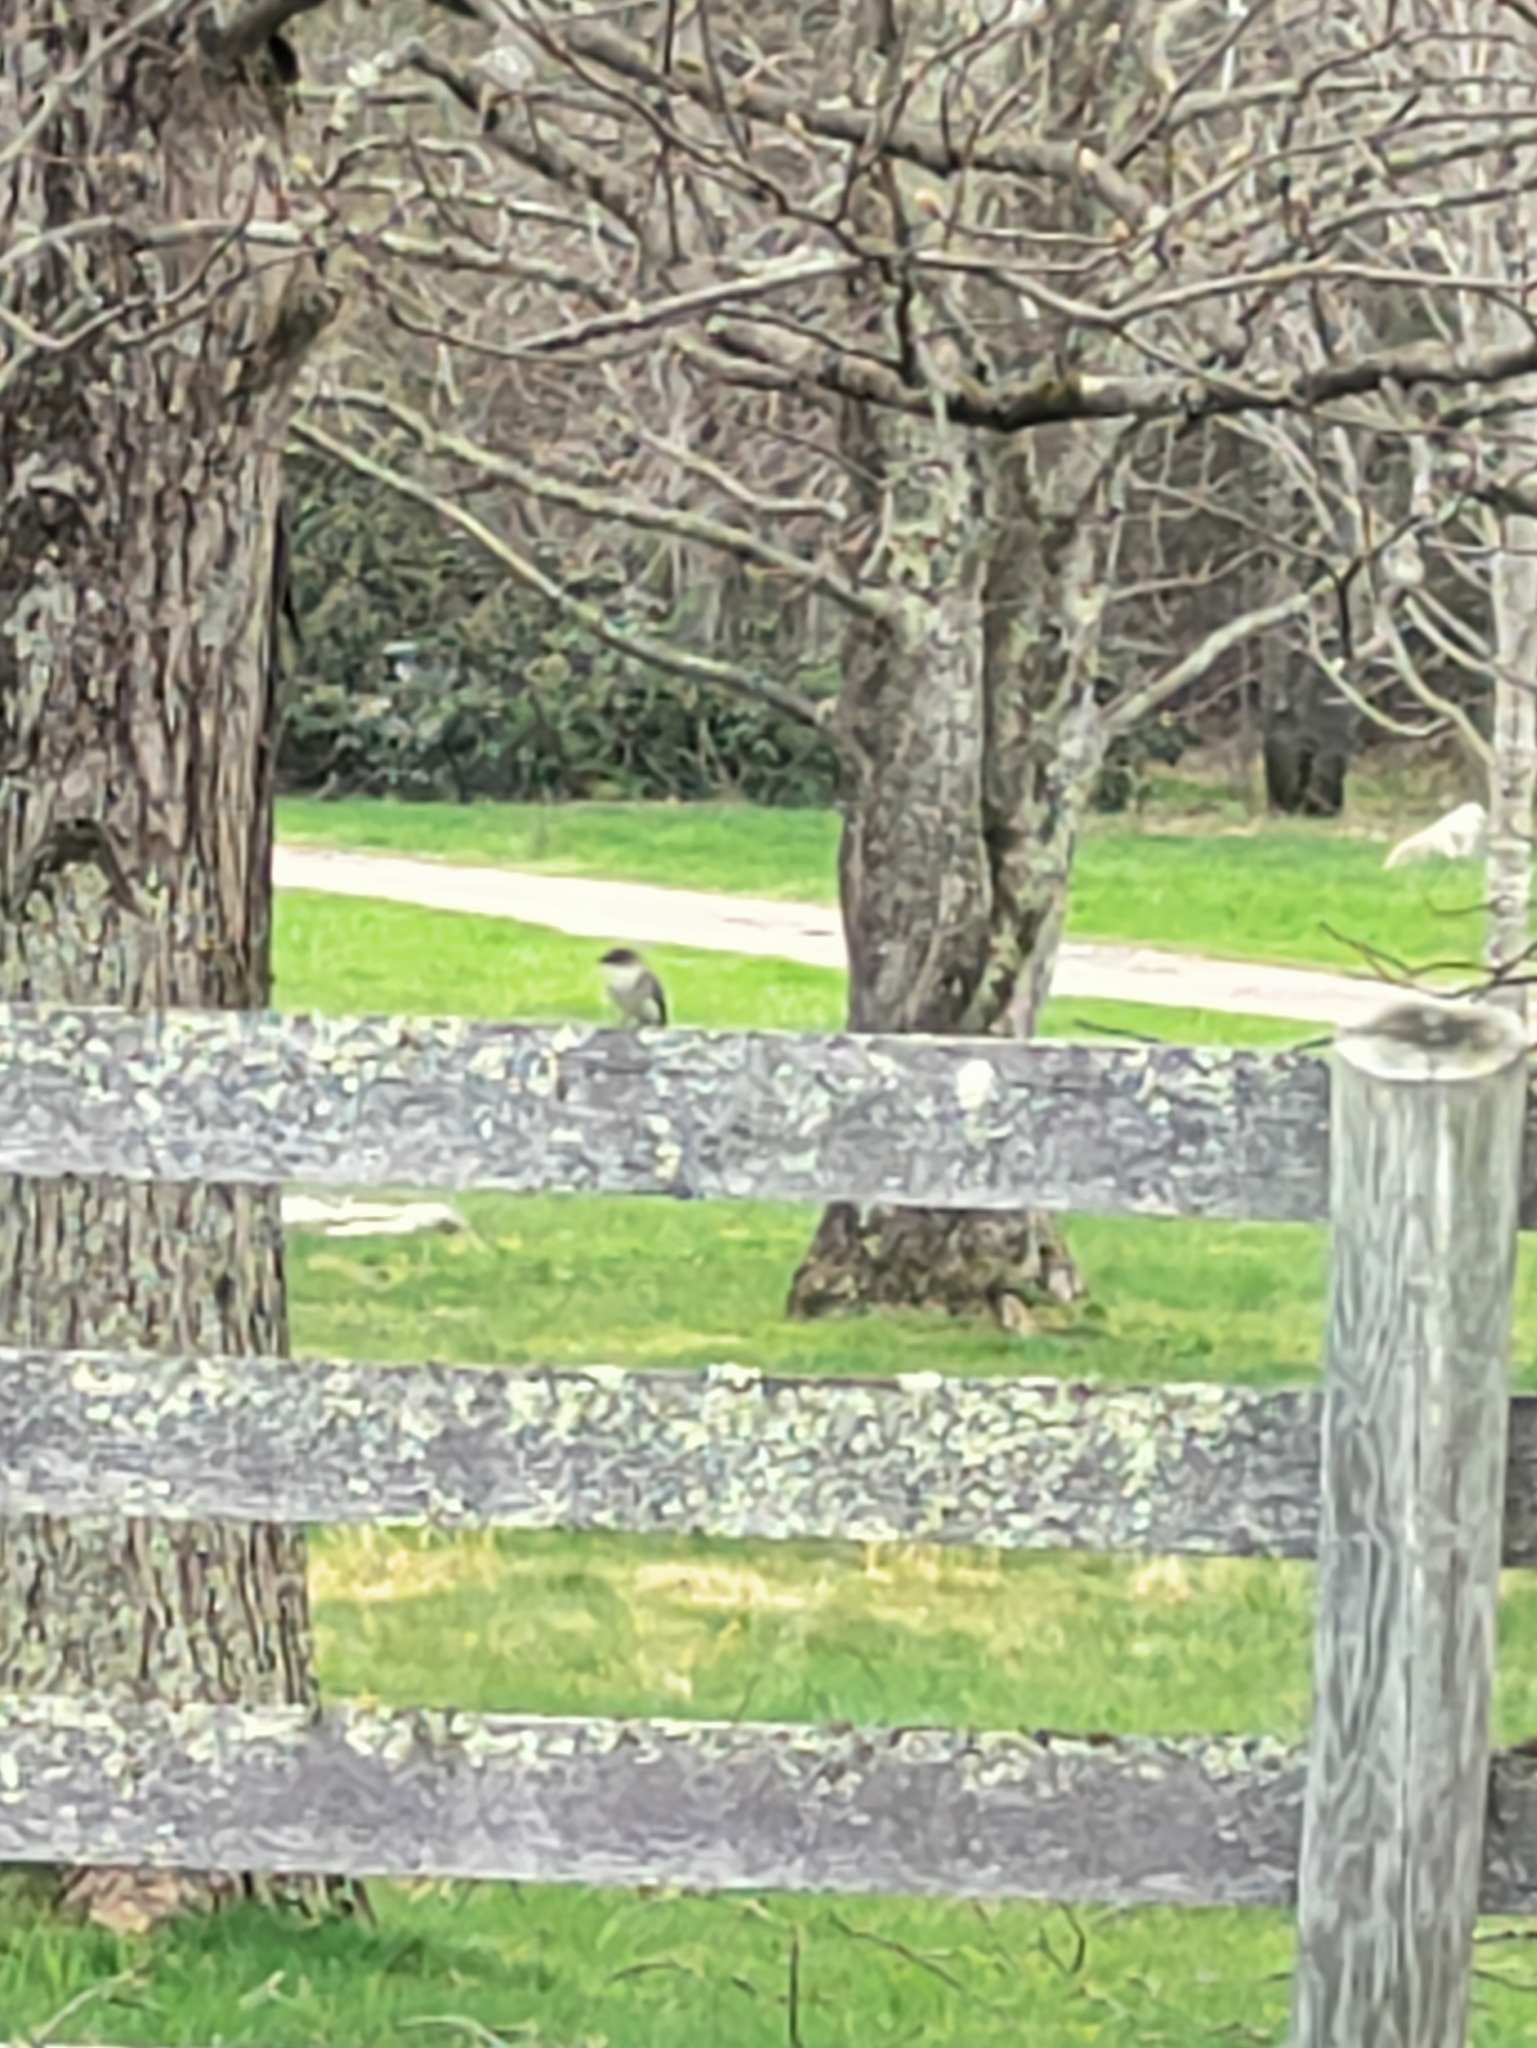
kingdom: Animalia
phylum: Chordata
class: Aves
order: Passeriformes
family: Tyrannidae
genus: Sayornis
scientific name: Sayornis phoebe
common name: Eastern phoebe
